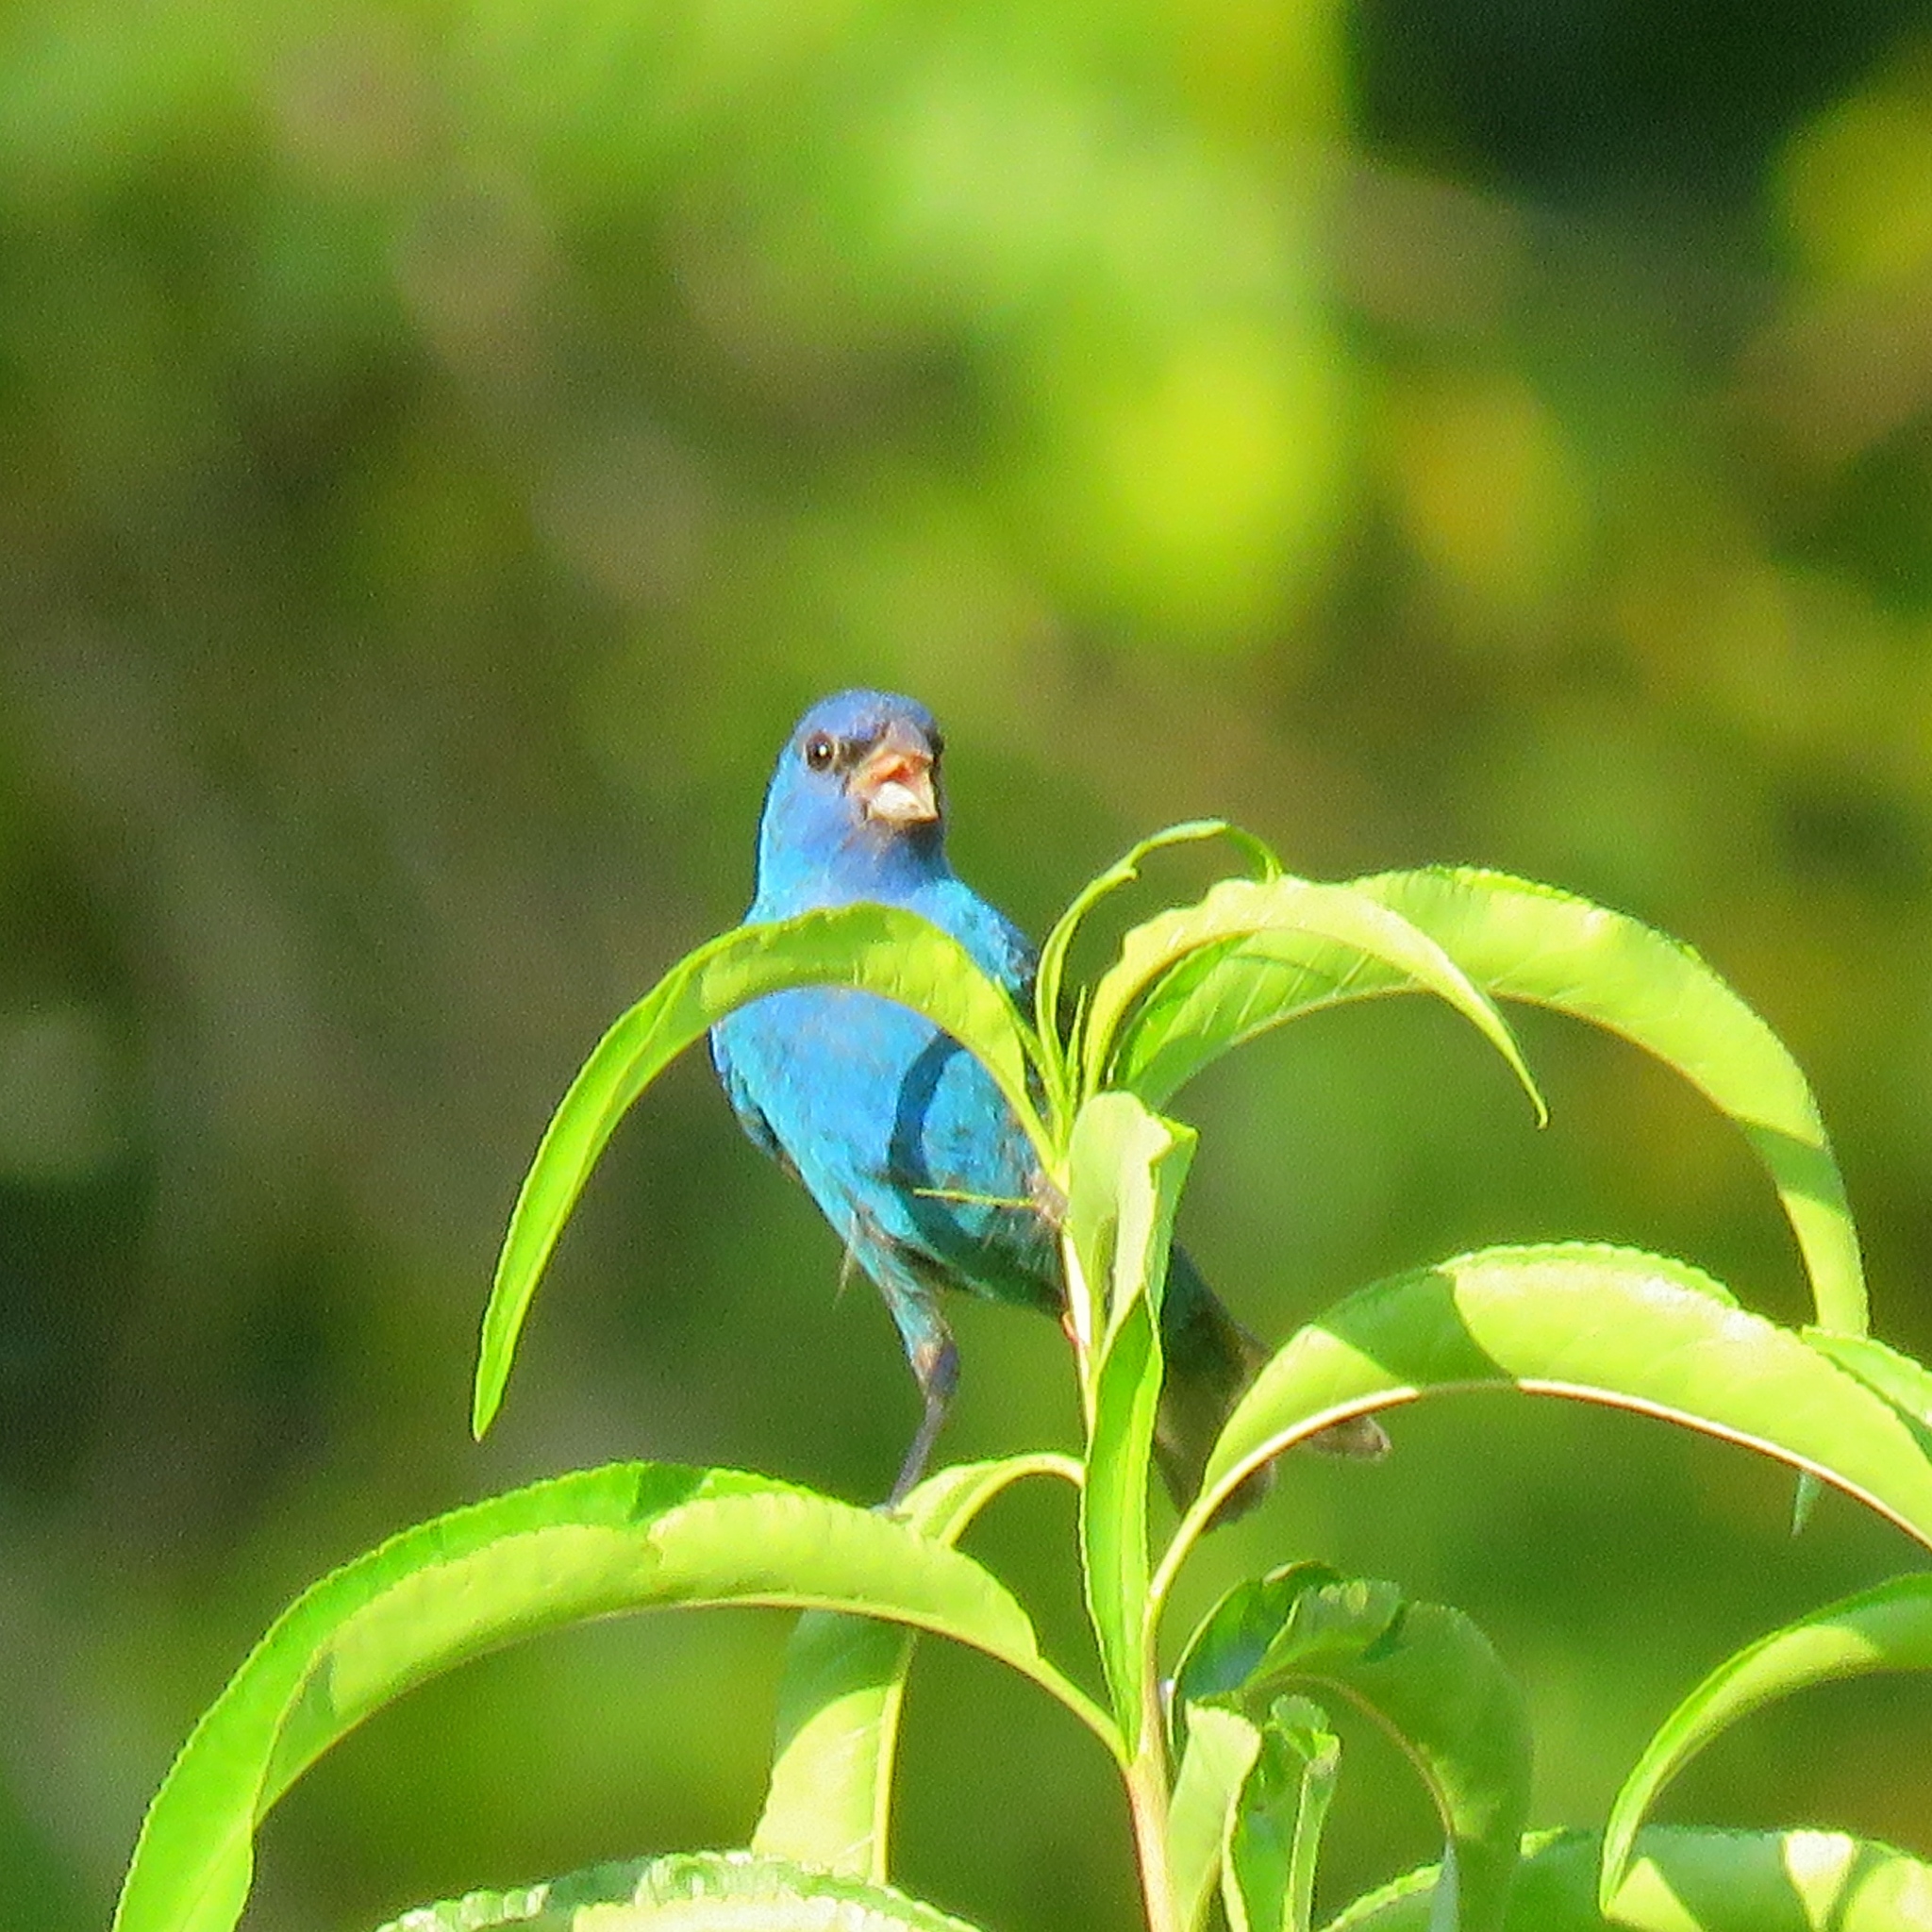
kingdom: Animalia
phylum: Chordata
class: Aves
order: Passeriformes
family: Cardinalidae
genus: Passerina
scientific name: Passerina cyanea
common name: Indigo bunting
